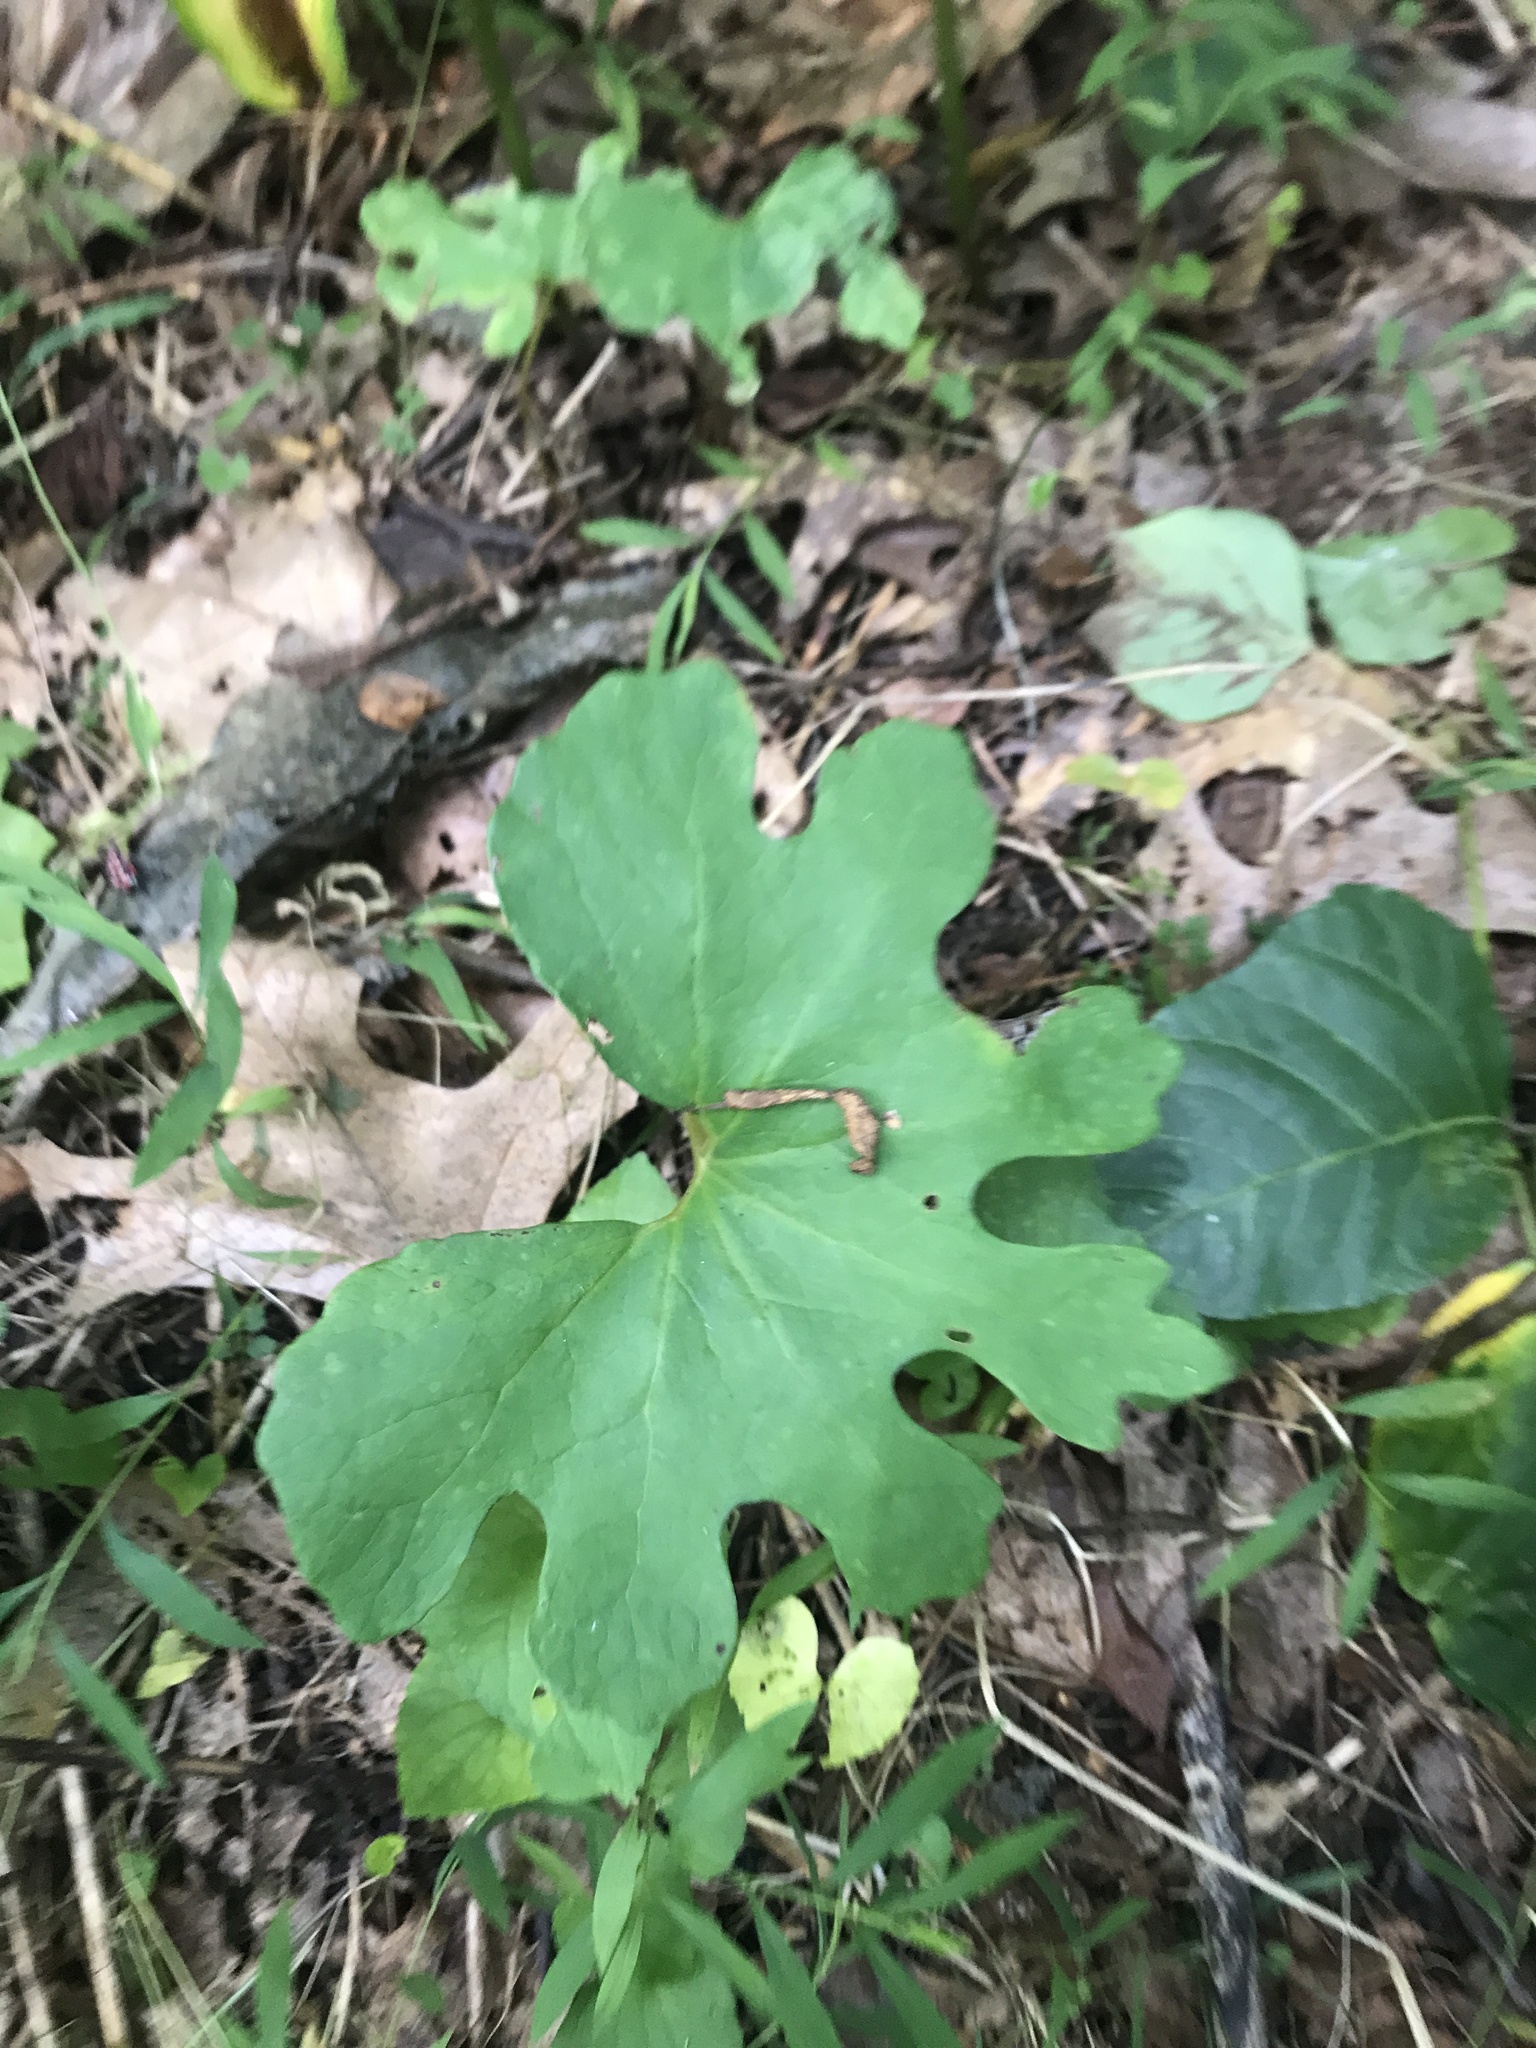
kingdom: Plantae
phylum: Tracheophyta
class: Magnoliopsida
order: Ranunculales
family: Papaveraceae
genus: Sanguinaria
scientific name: Sanguinaria canadensis
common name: Bloodroot
